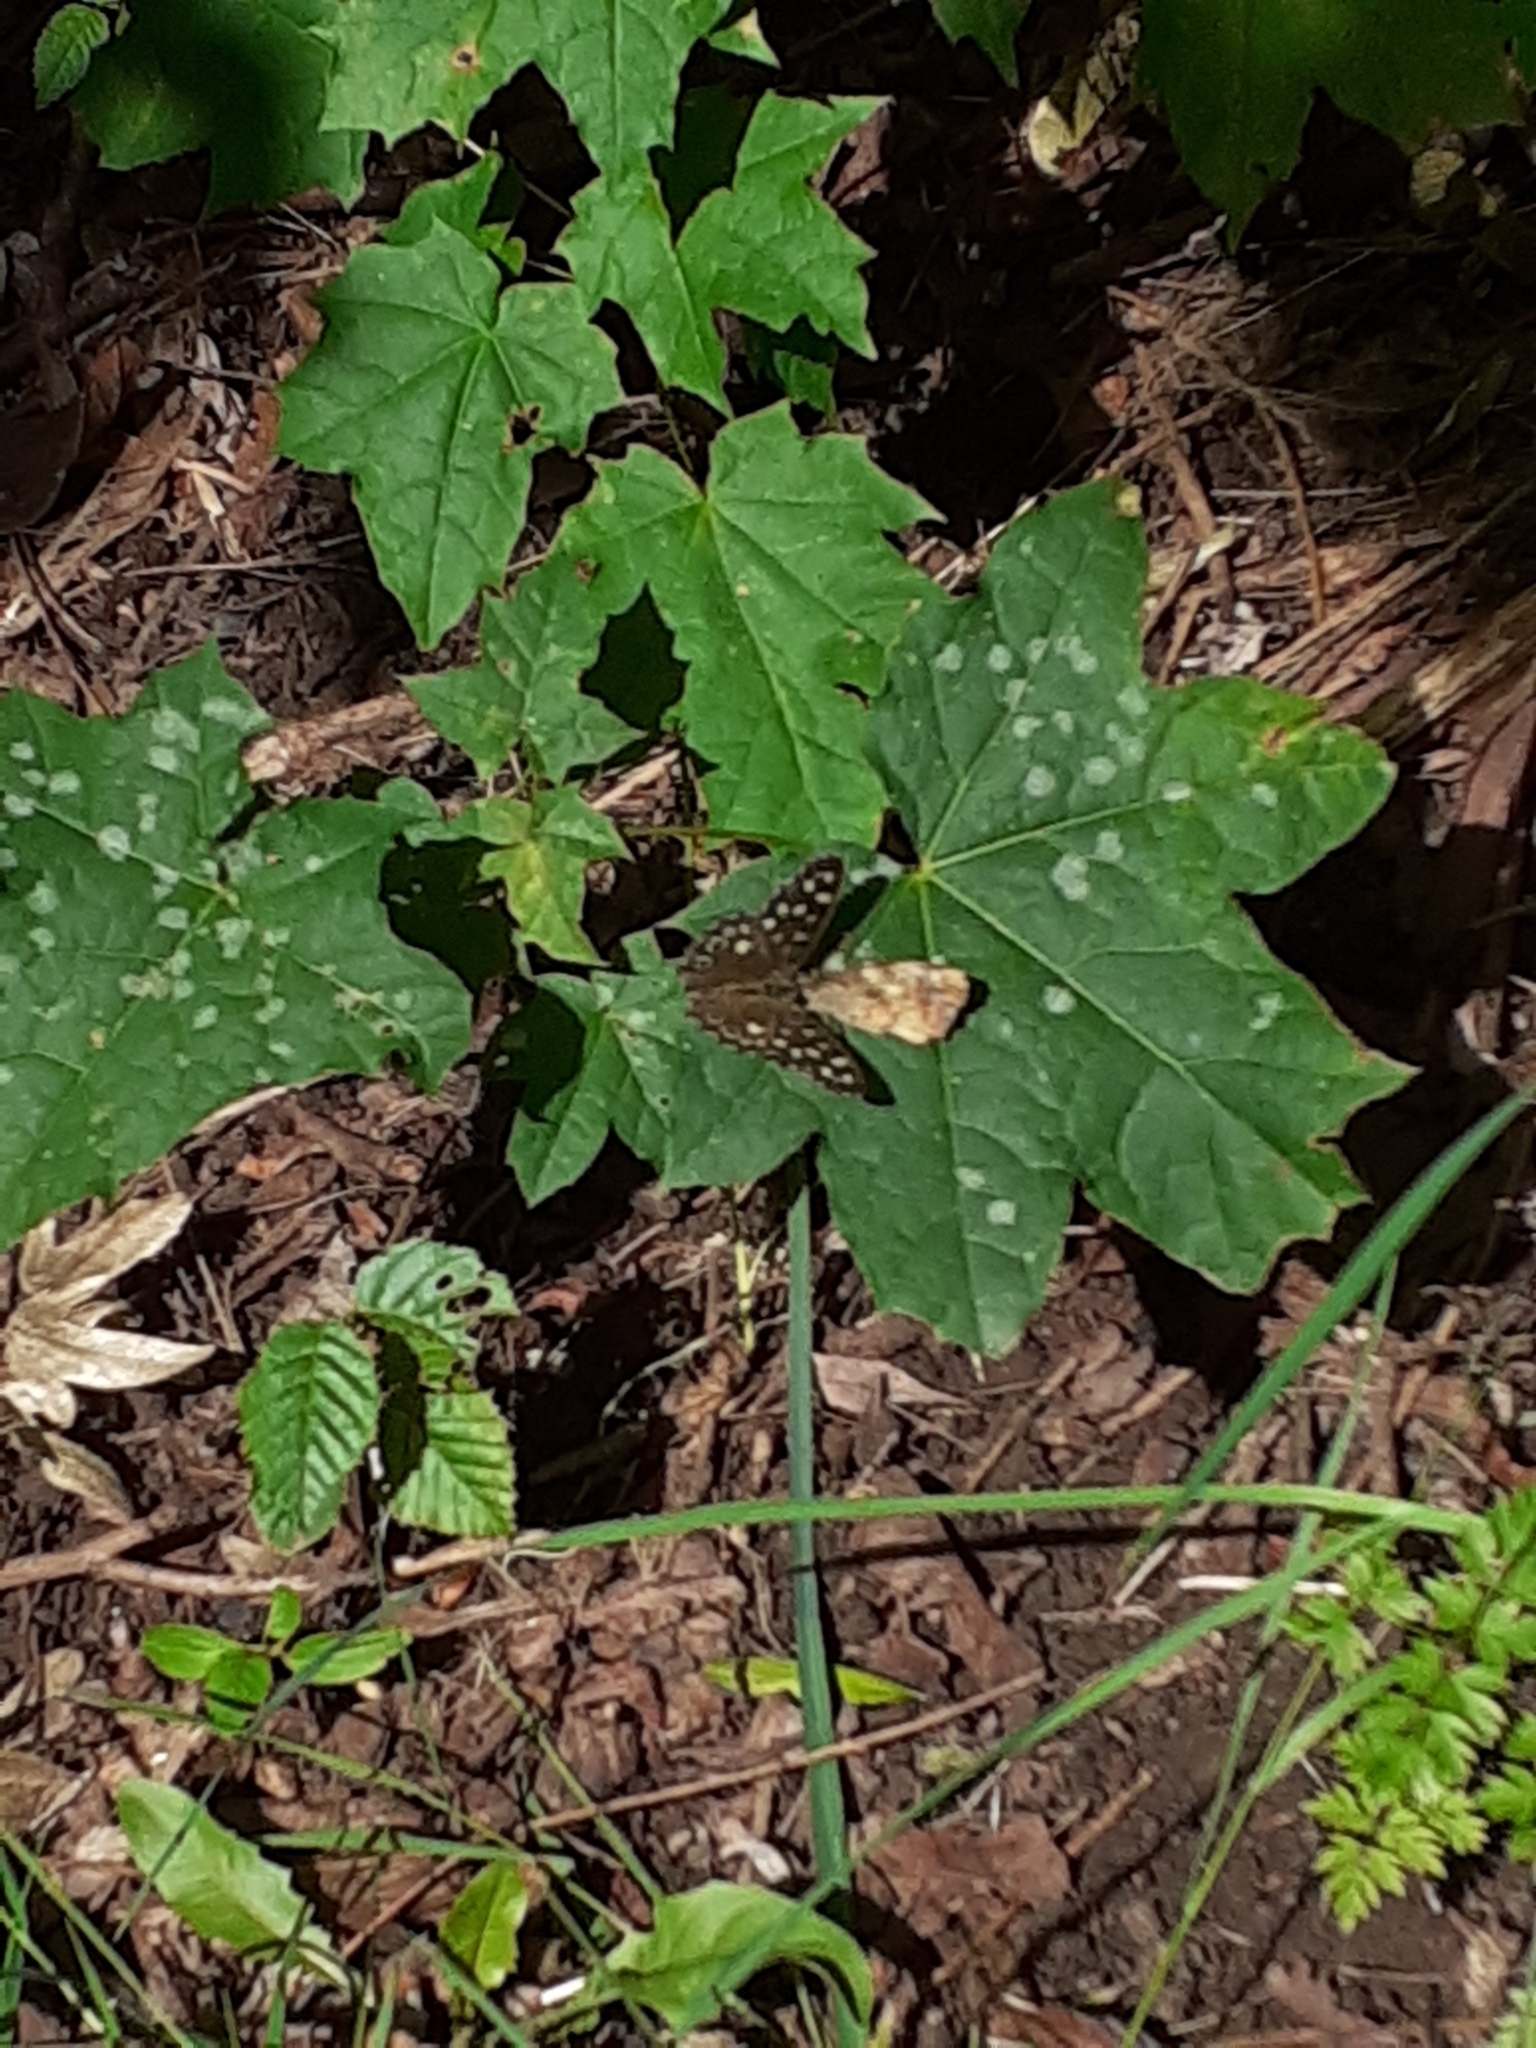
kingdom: Animalia
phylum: Arthropoda
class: Insecta
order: Lepidoptera
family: Nymphalidae
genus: Pararge
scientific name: Pararge aegeria
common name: Speckled wood
